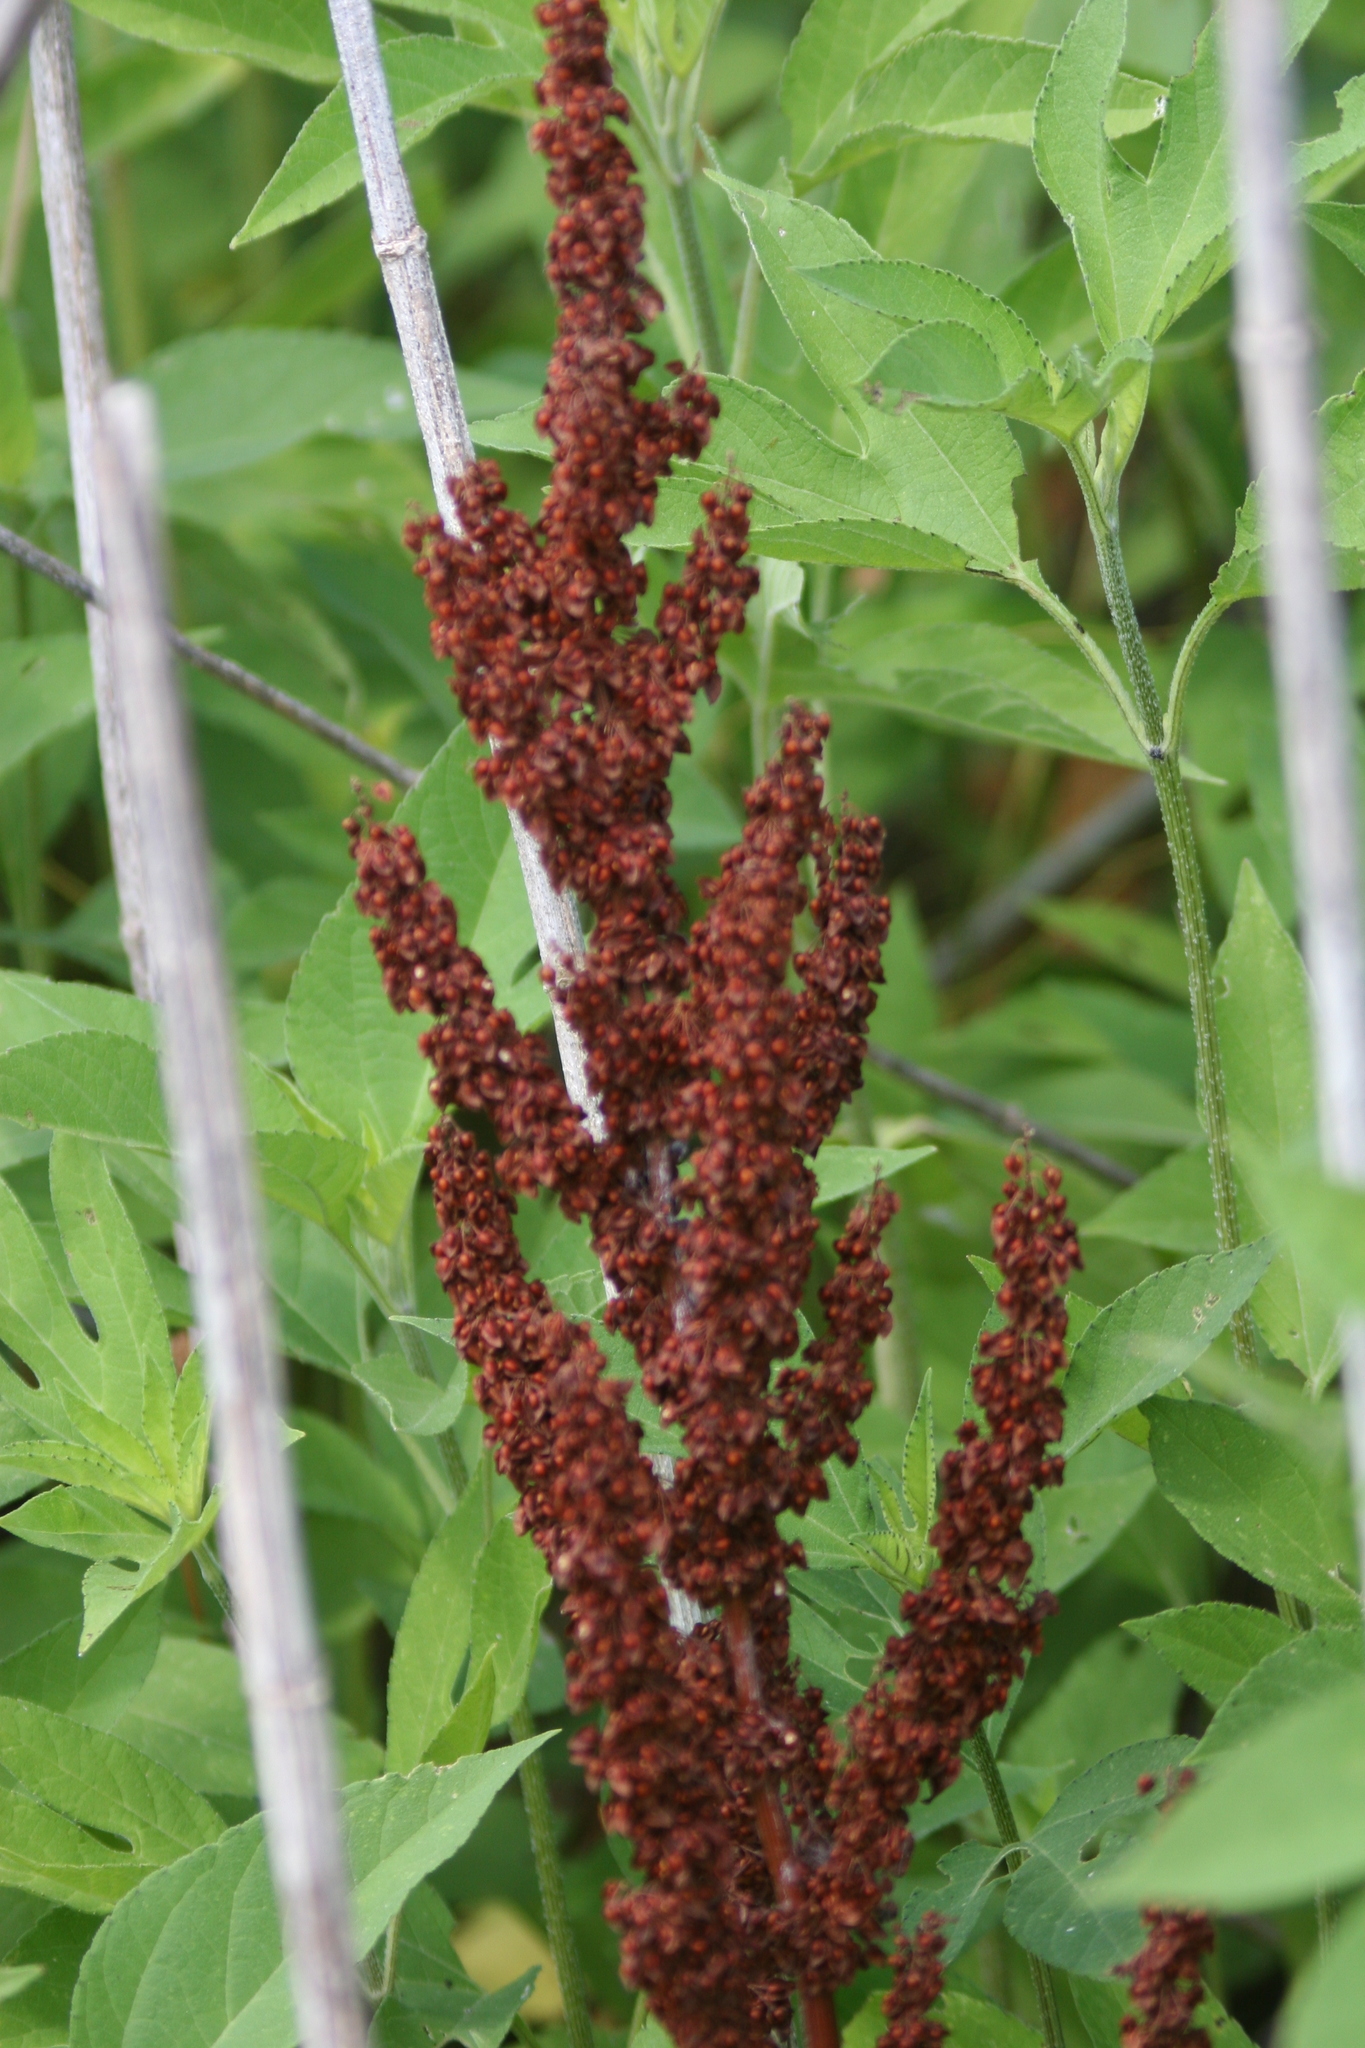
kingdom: Plantae
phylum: Tracheophyta
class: Magnoliopsida
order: Caryophyllales
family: Polygonaceae
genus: Rumex
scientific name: Rumex crispus
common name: Curled dock
